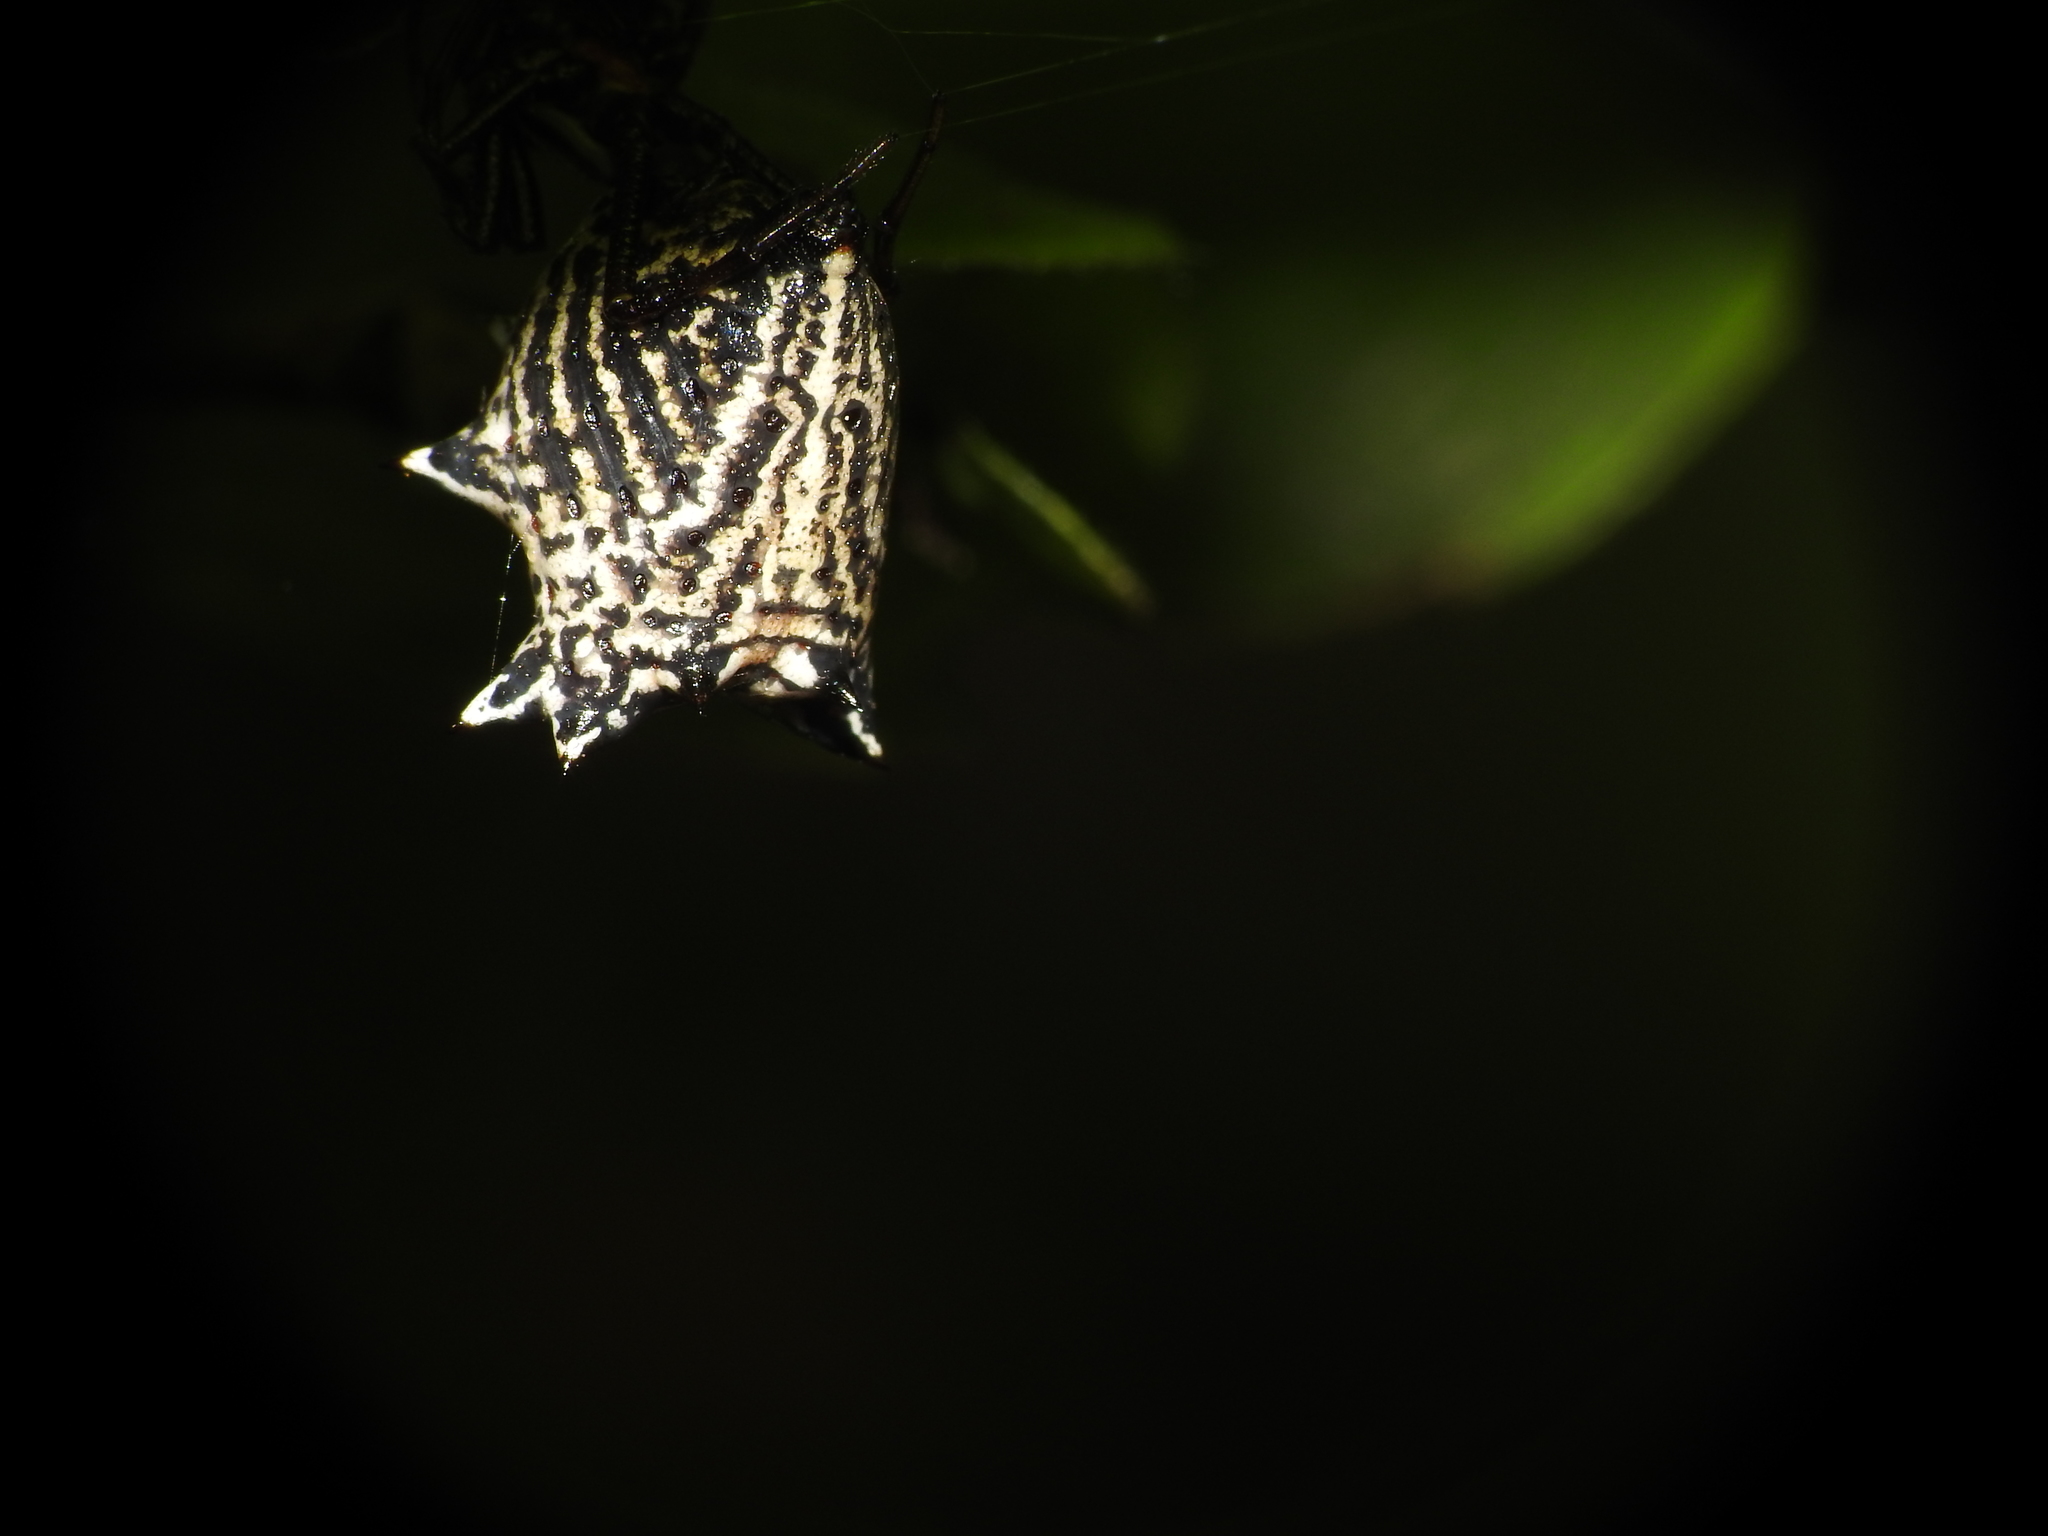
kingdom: Animalia
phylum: Arthropoda
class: Arachnida
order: Araneae
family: Araneidae
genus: Micrathena
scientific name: Micrathena gracilis
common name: Orb weavers
